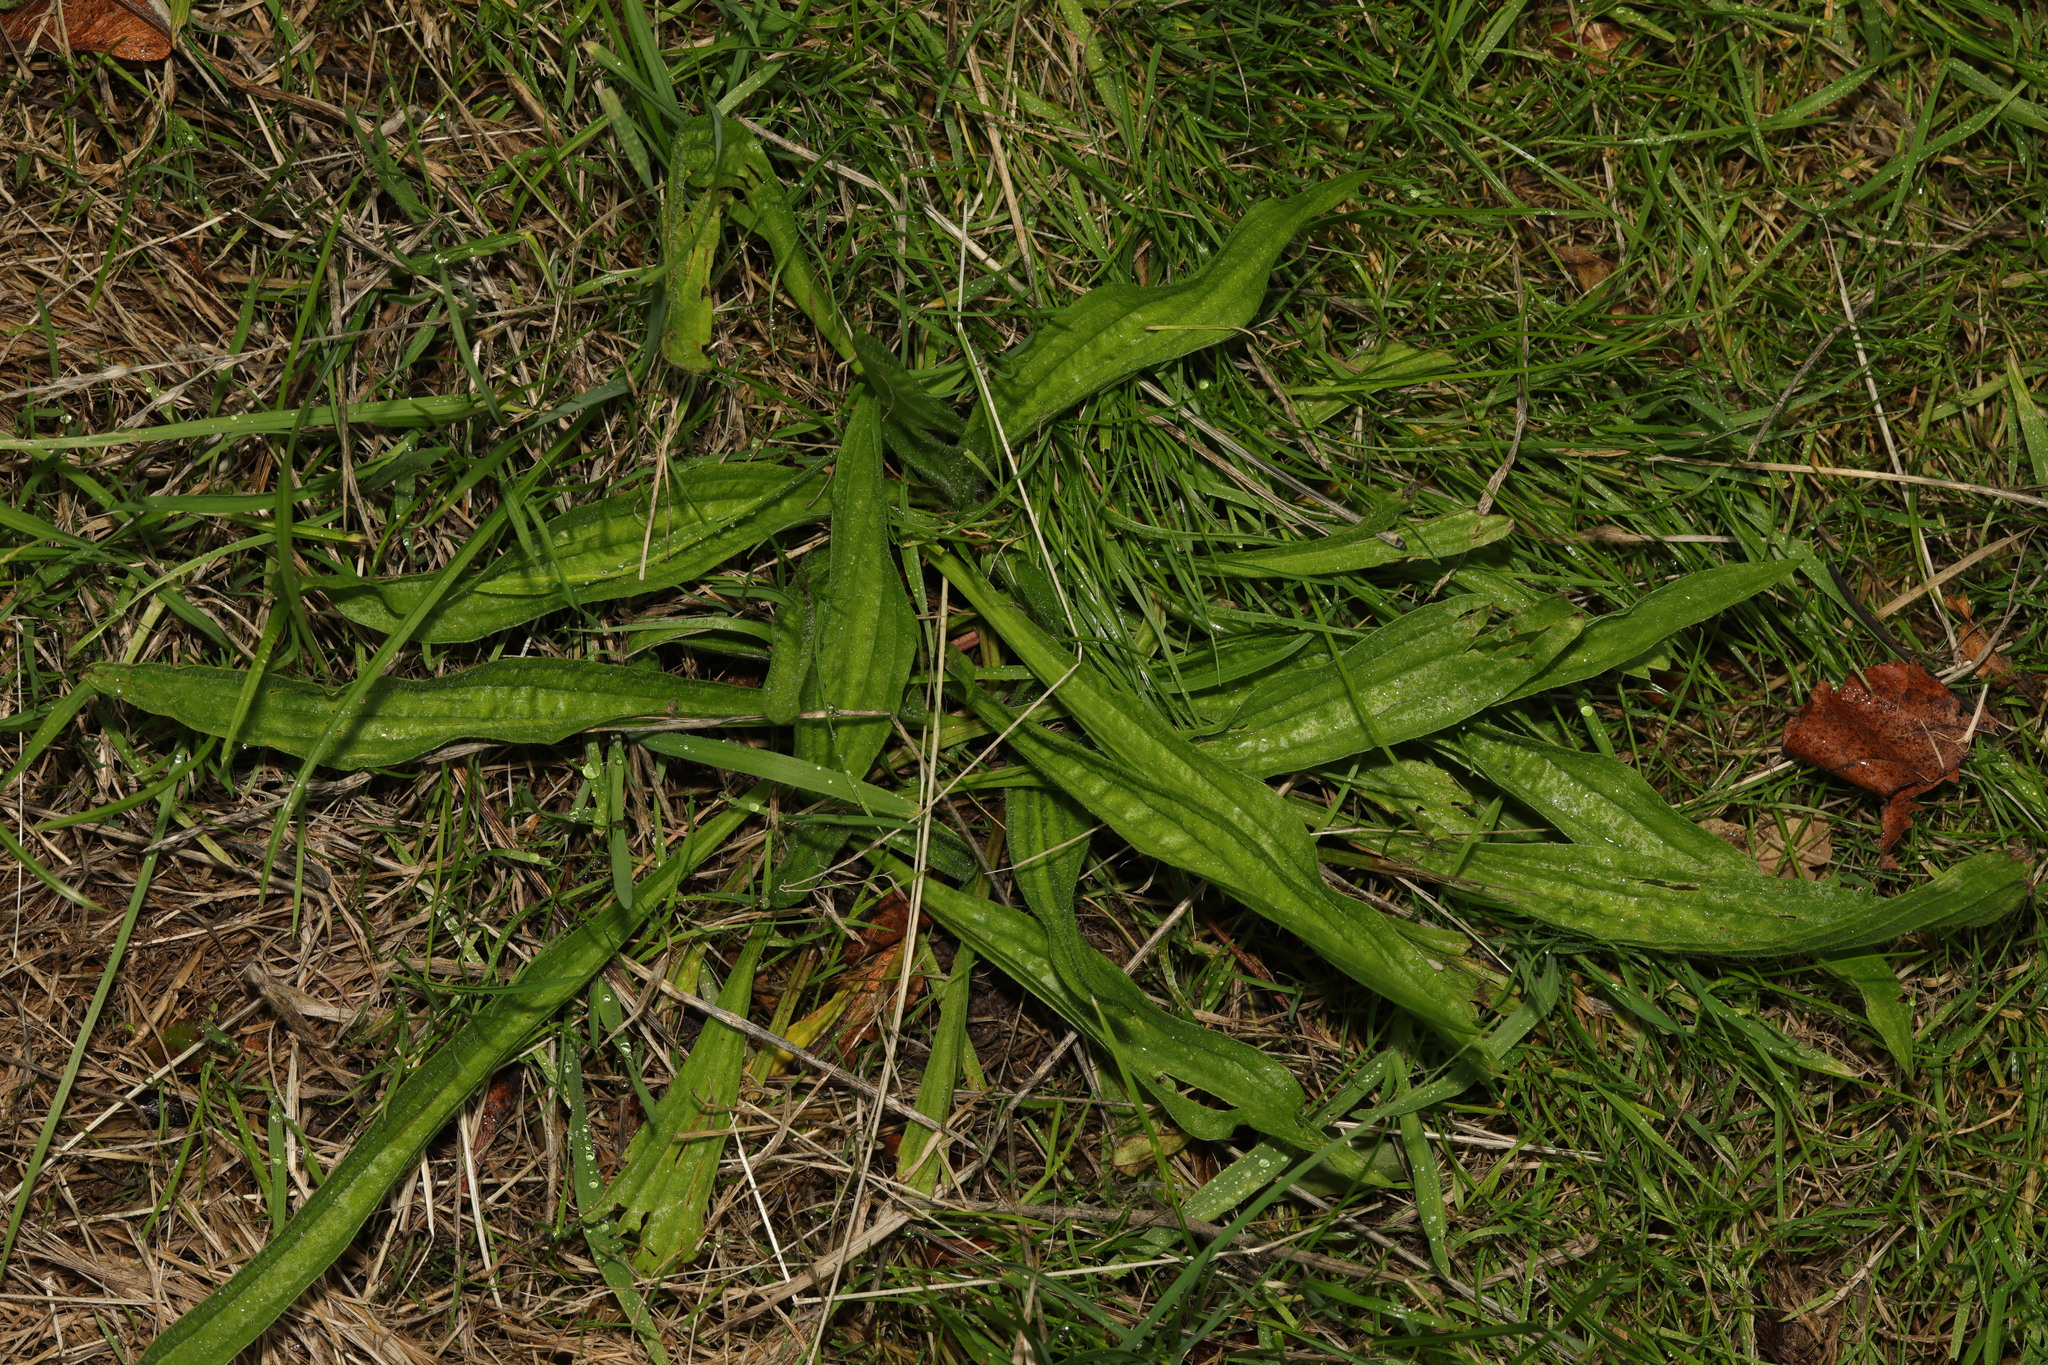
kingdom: Plantae
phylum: Tracheophyta
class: Magnoliopsida
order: Lamiales
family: Plantaginaceae
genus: Plantago
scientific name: Plantago lanceolata
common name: Ribwort plantain
